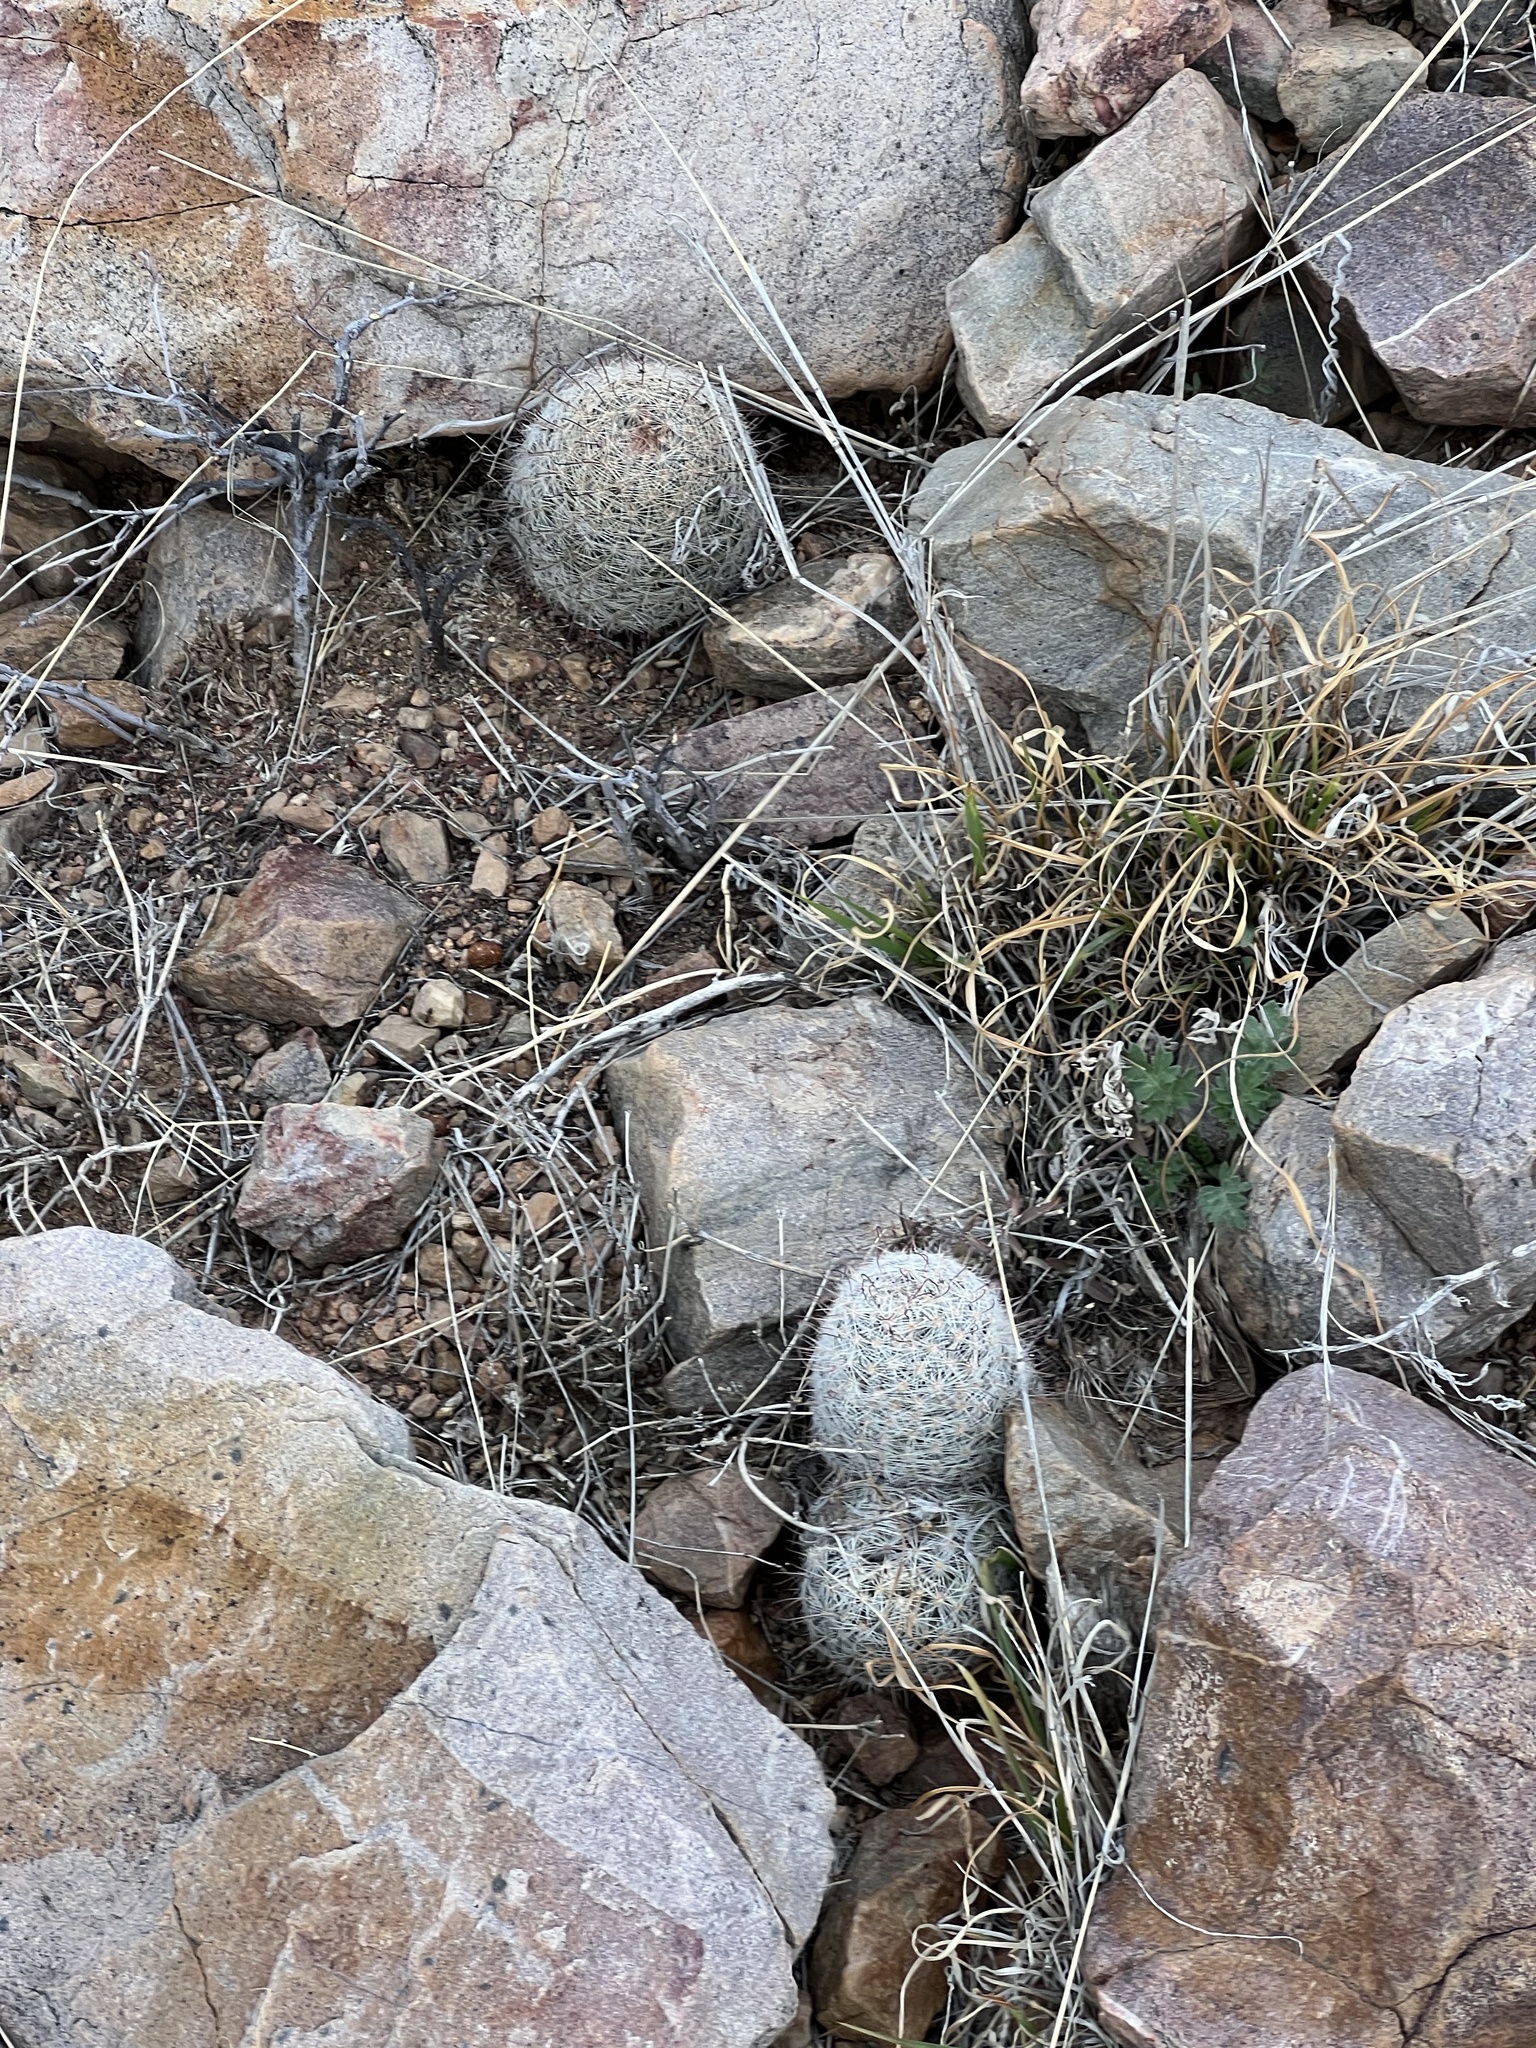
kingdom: Plantae
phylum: Tracheophyta
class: Magnoliopsida
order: Caryophyllales
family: Cactaceae
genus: Cochemiea
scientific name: Cochemiea grahamii
